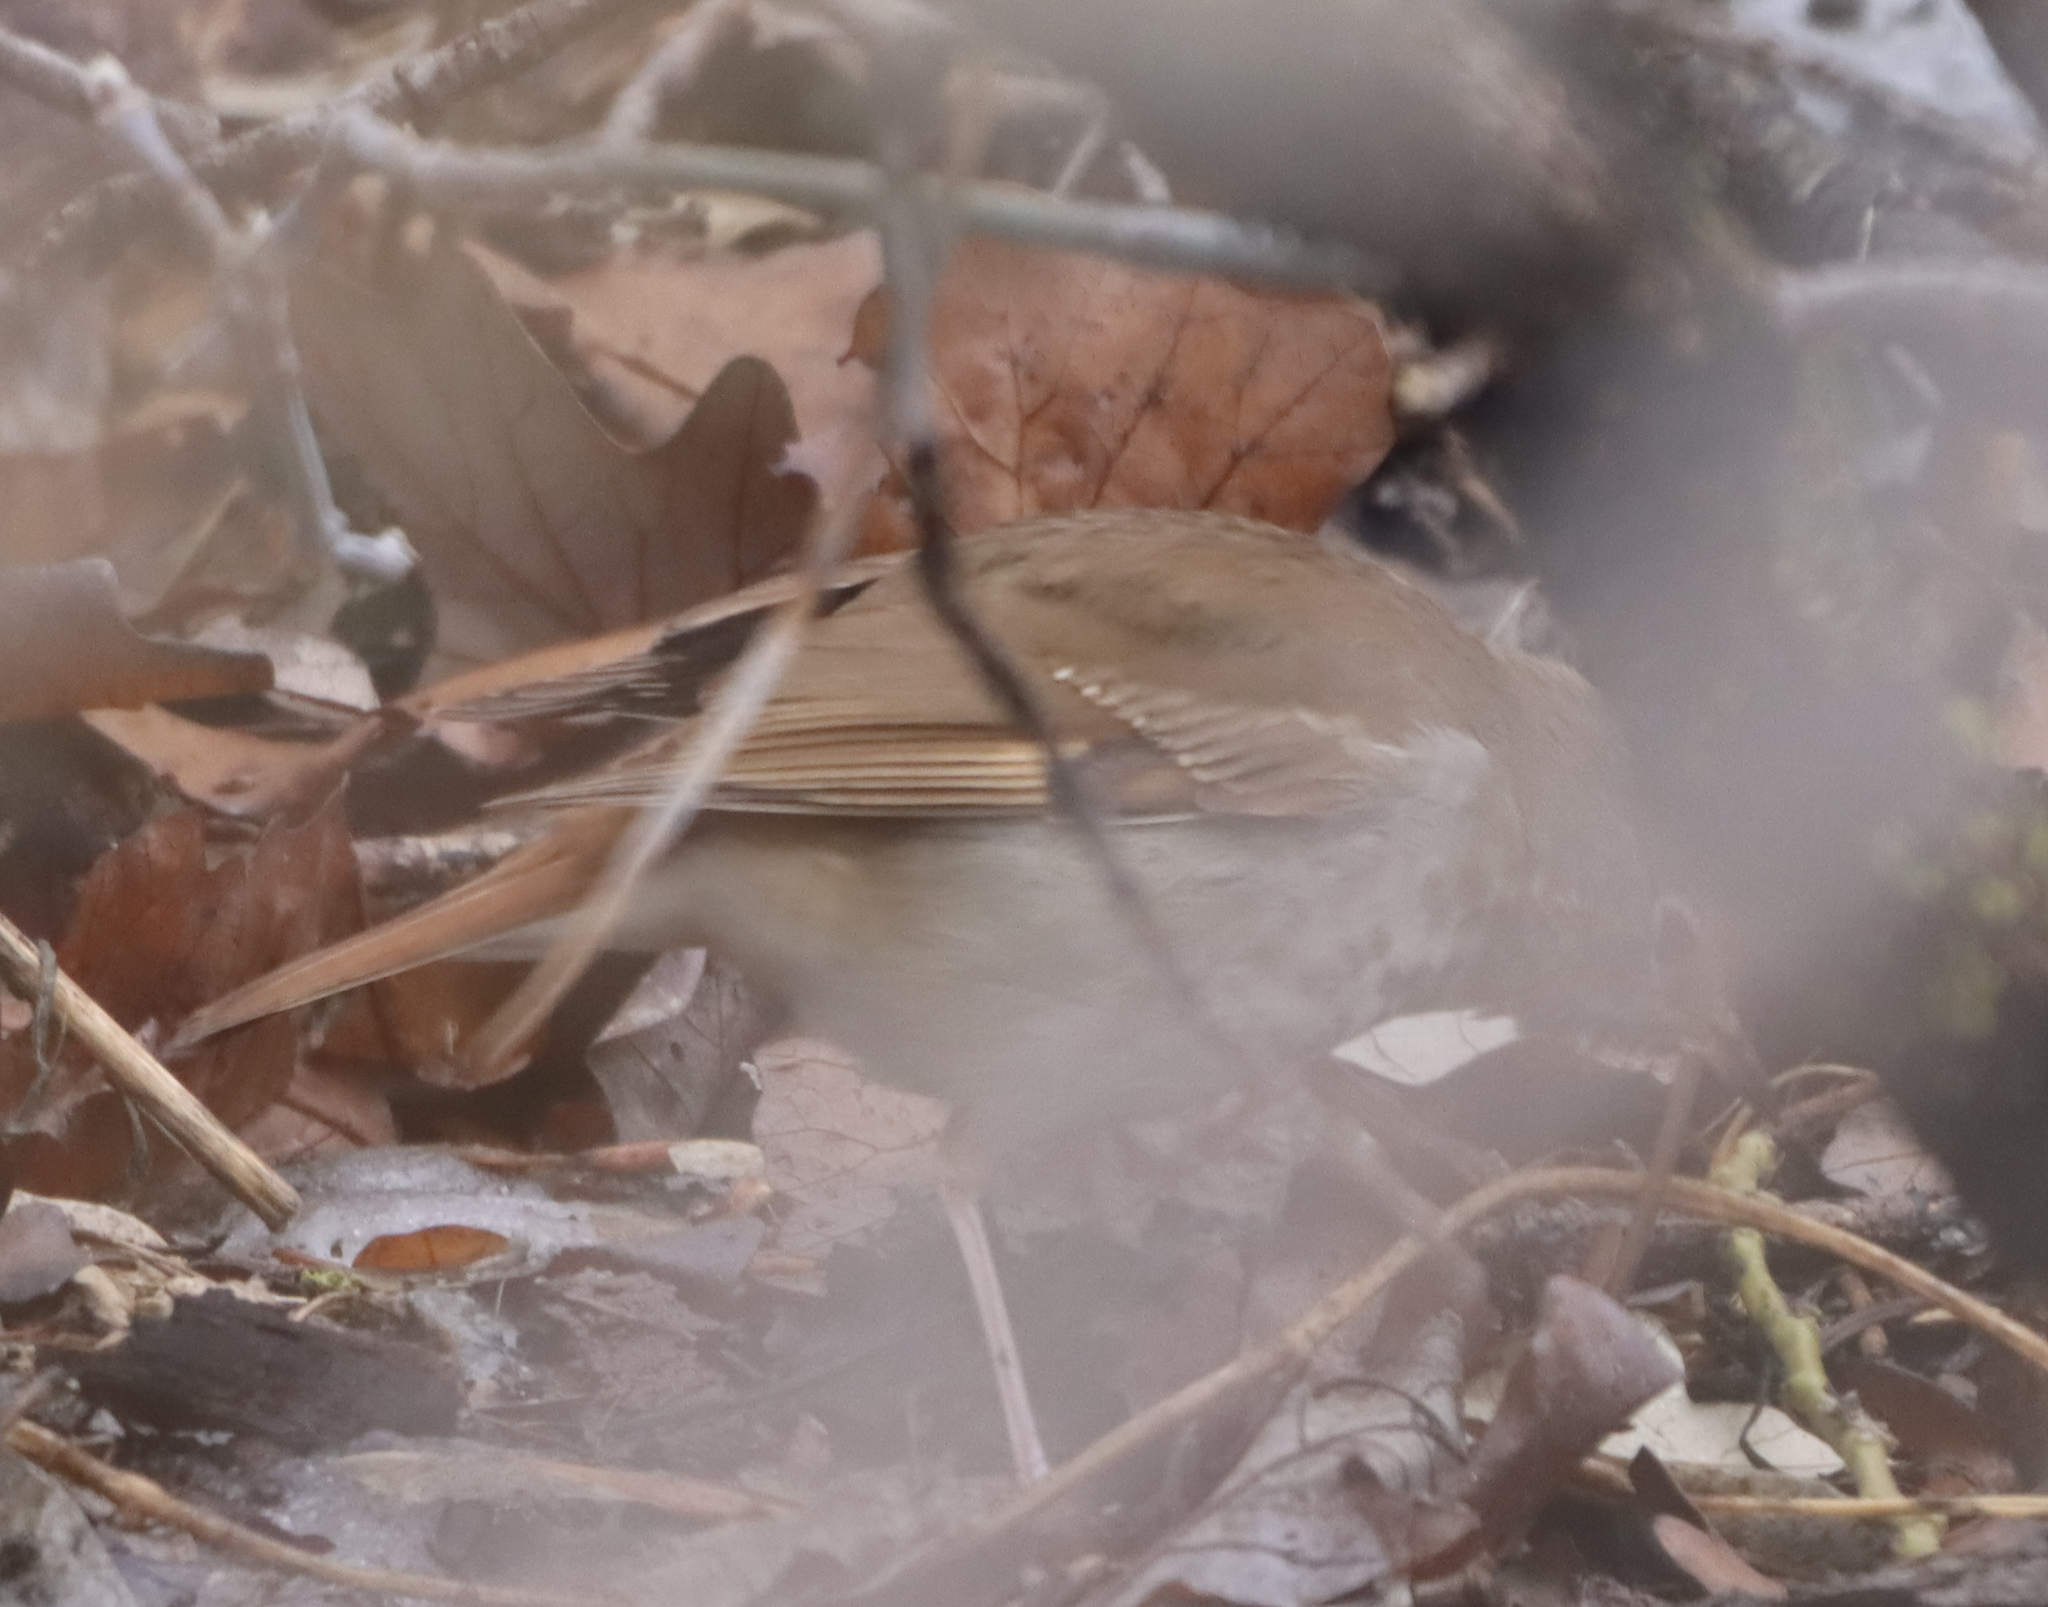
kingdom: Animalia
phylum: Chordata
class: Aves
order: Passeriformes
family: Turdidae
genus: Catharus
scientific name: Catharus guttatus
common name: Hermit thrush
